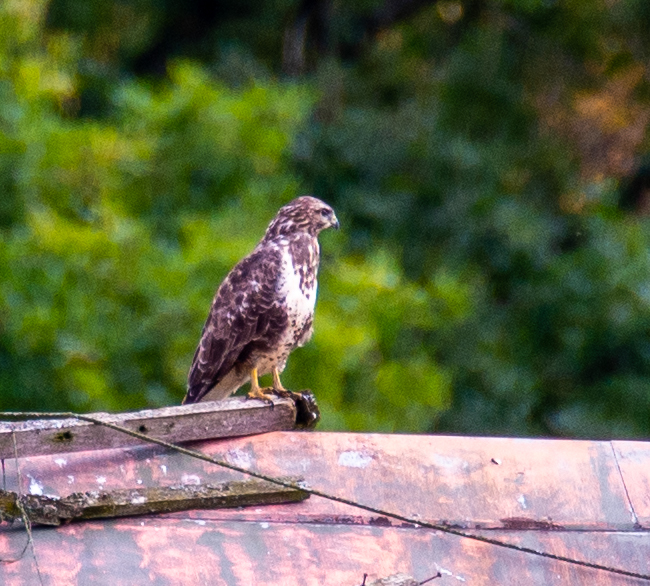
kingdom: Animalia
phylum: Chordata
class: Aves
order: Accipitriformes
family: Accipitridae
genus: Buteo
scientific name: Buteo buteo
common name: Common buzzard
